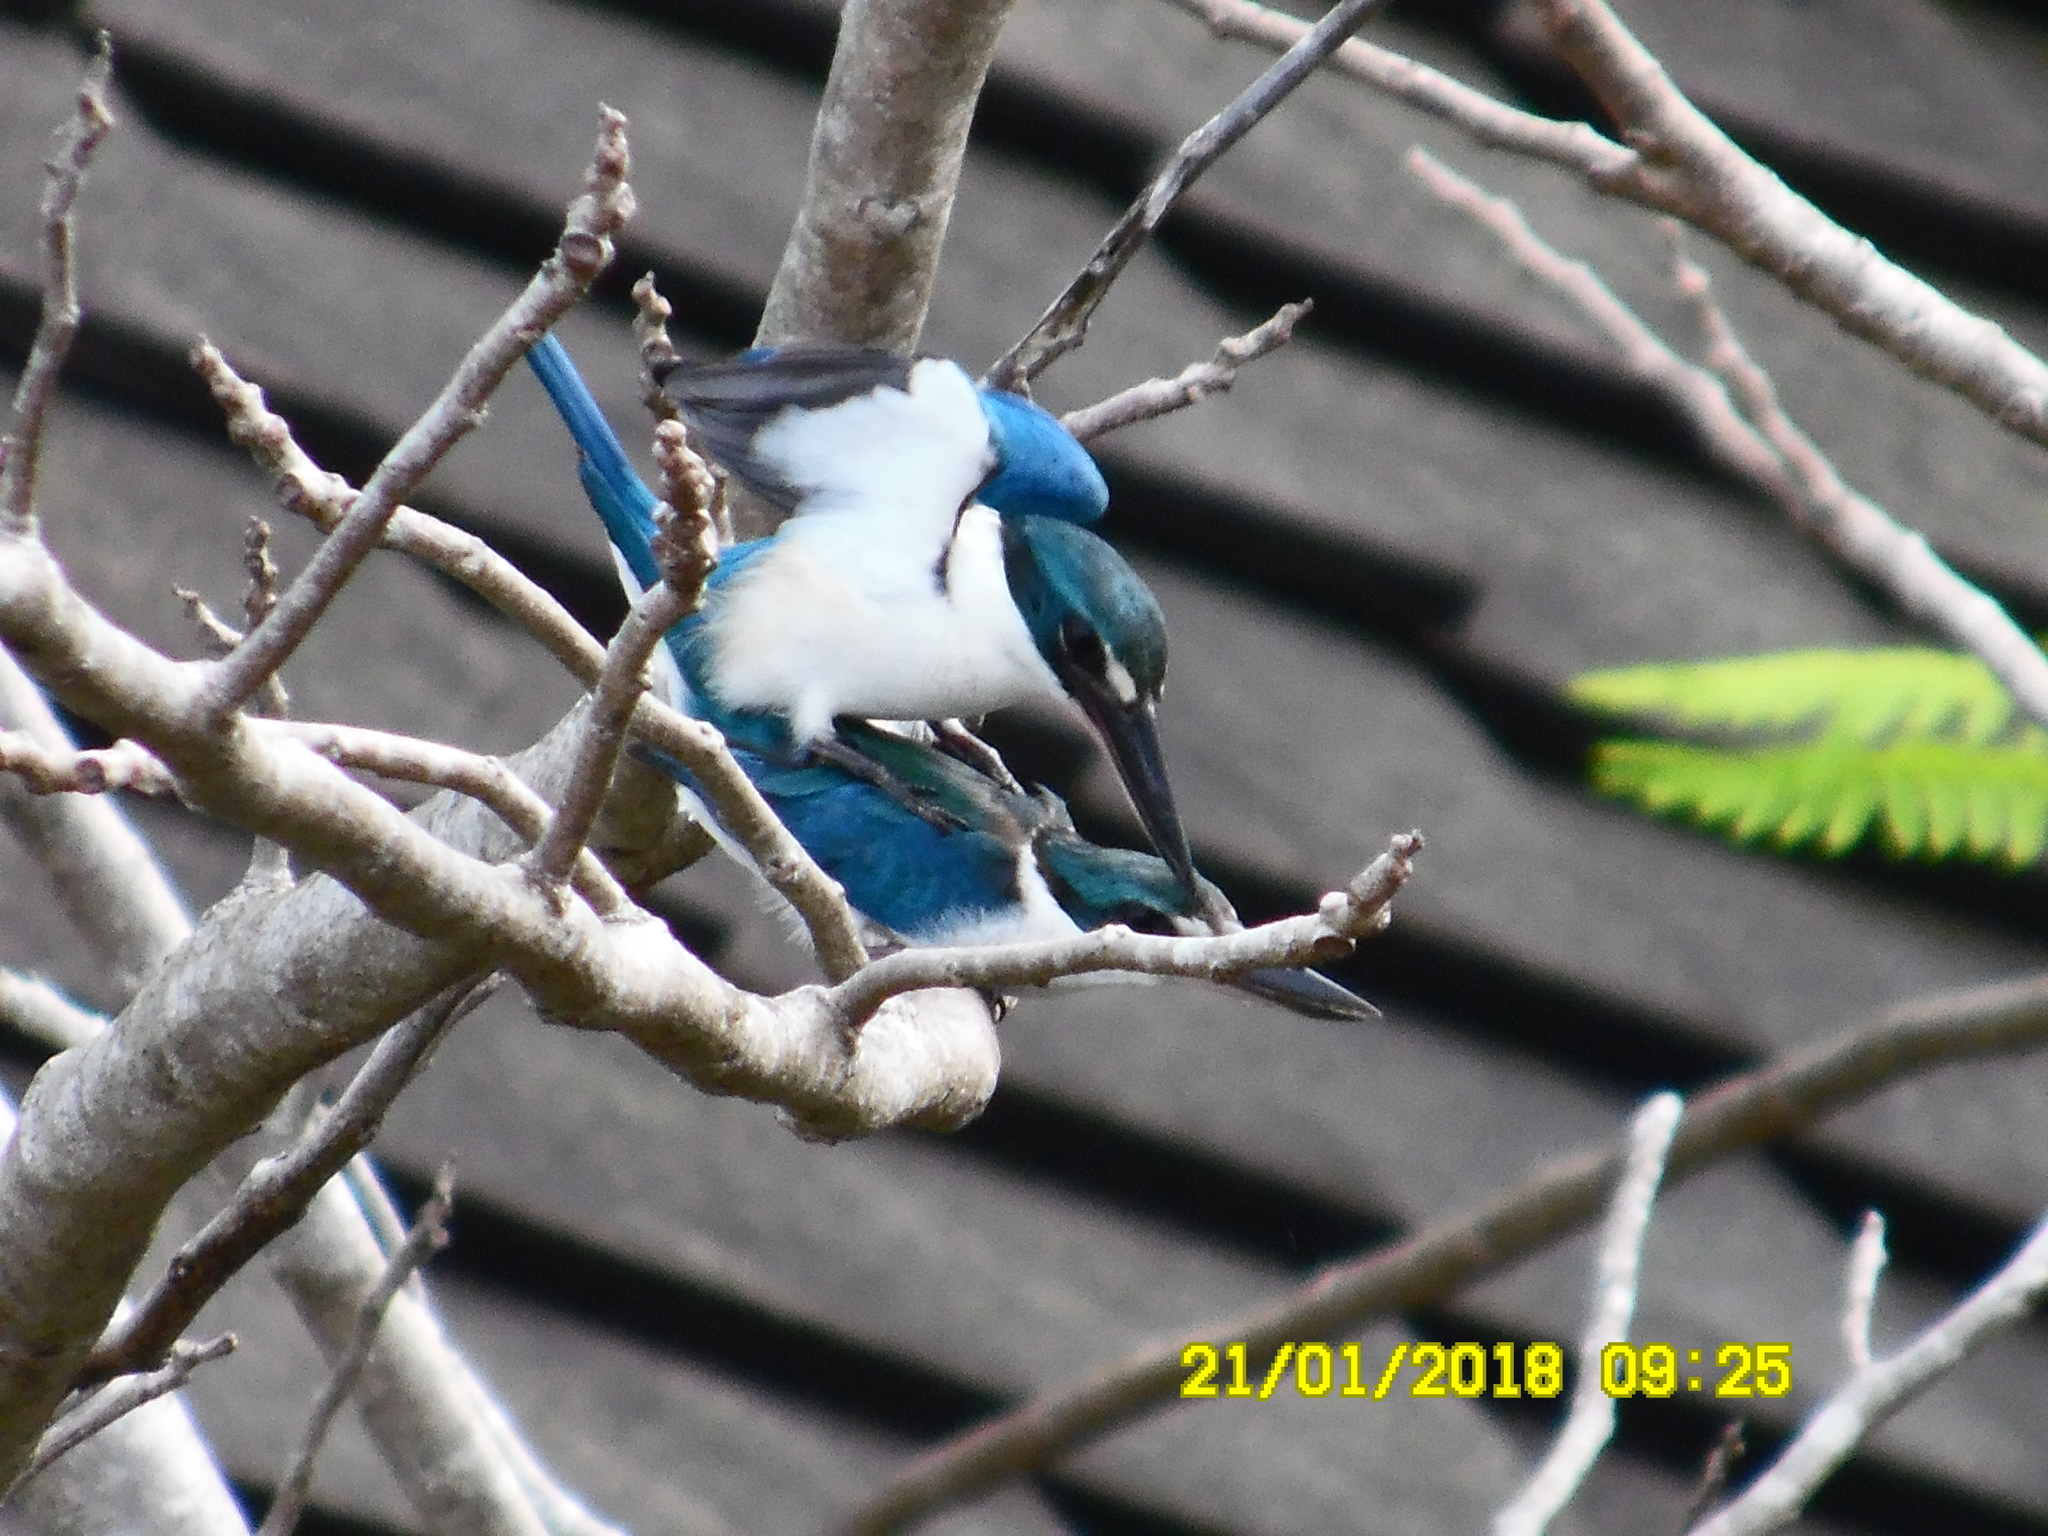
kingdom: Animalia
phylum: Chordata
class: Aves
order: Coraciiformes
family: Alcedinidae
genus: Todiramphus
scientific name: Todiramphus chloris
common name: Collared kingfisher
